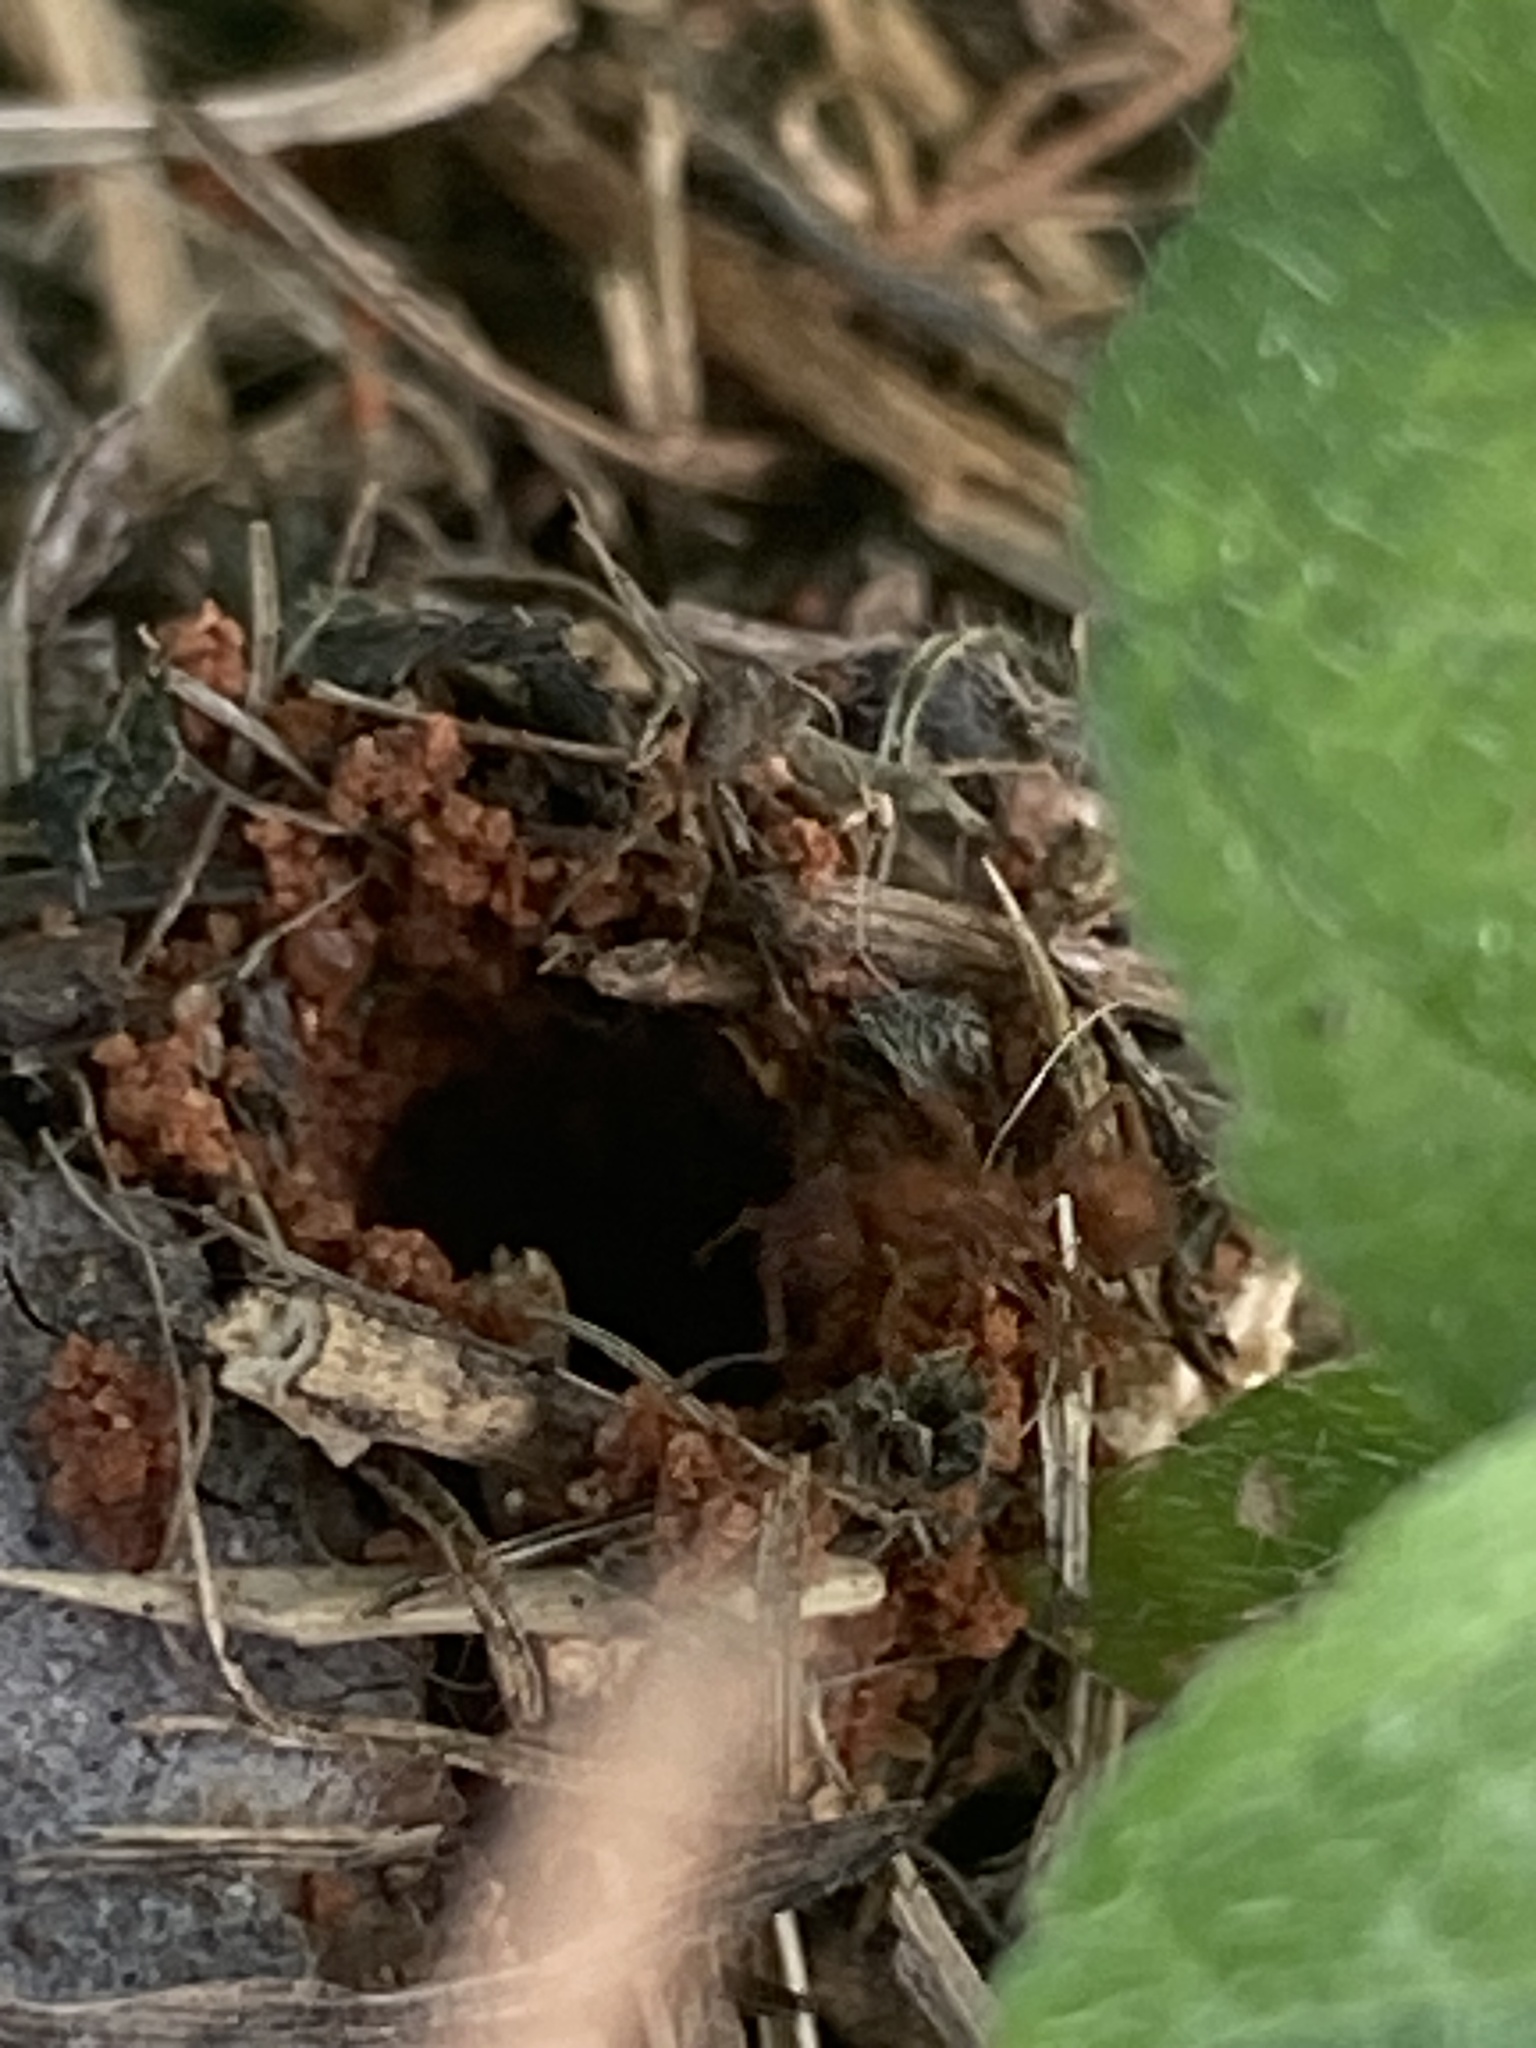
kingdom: Animalia
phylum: Arthropoda
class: Insecta
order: Hymenoptera
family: Formicidae
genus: Trachymyrmex
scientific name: Trachymyrmex septentrionalis
